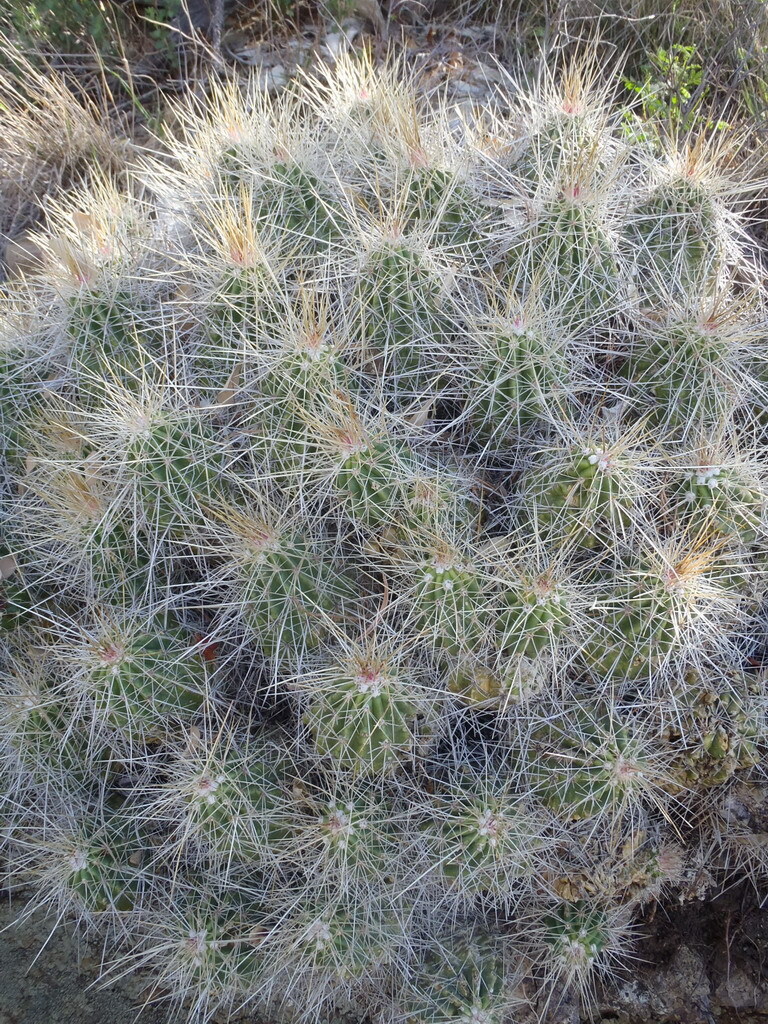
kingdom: Plantae
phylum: Tracheophyta
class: Magnoliopsida
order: Caryophyllales
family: Cactaceae
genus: Echinocereus
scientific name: Echinocereus stramineus
